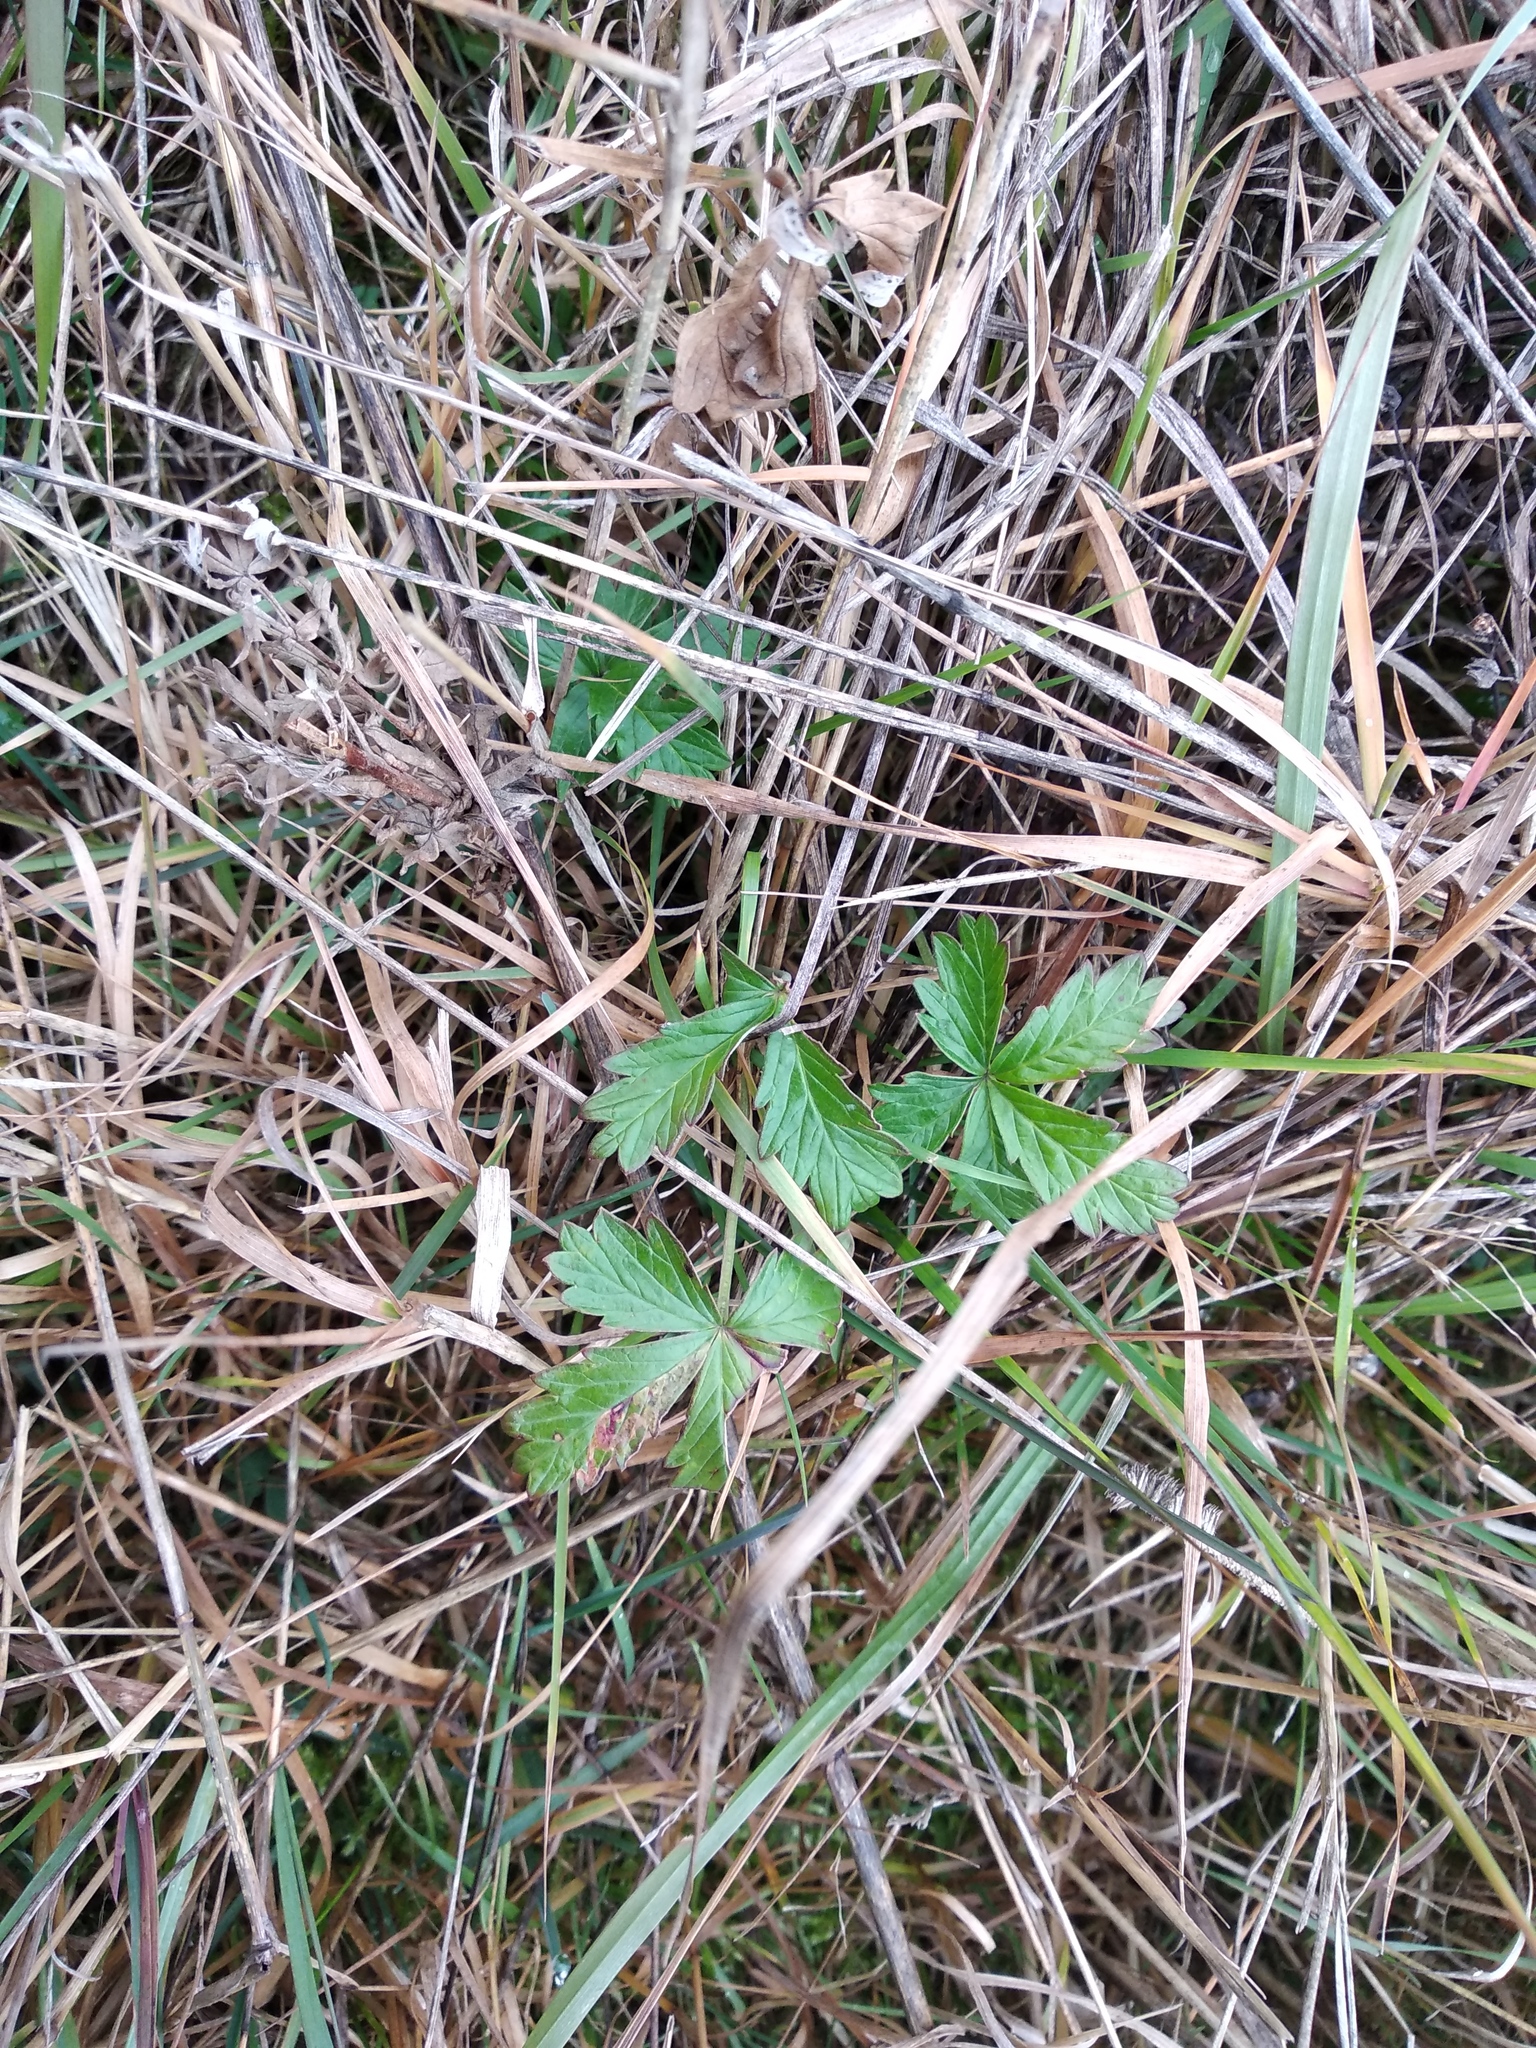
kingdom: Plantae
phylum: Tracheophyta
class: Magnoliopsida
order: Rosales
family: Rosaceae
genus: Potentilla
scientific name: Potentilla argentea
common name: Hoary cinquefoil
